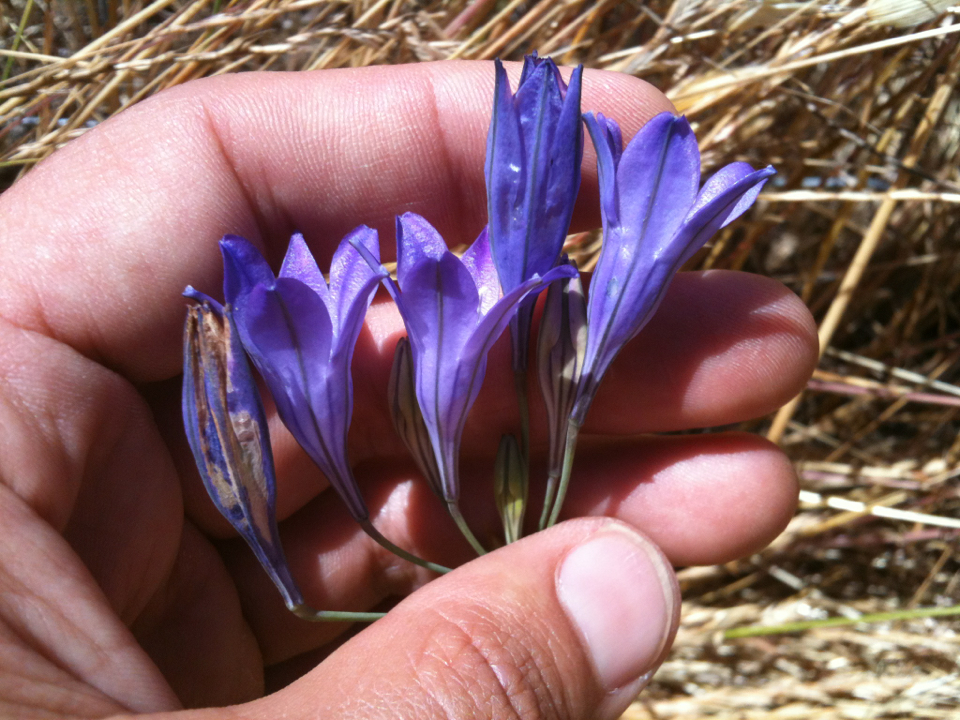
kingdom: Plantae
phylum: Tracheophyta
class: Liliopsida
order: Asparagales
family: Asparagaceae
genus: Triteleia
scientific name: Triteleia laxa
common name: Triplet-lily
